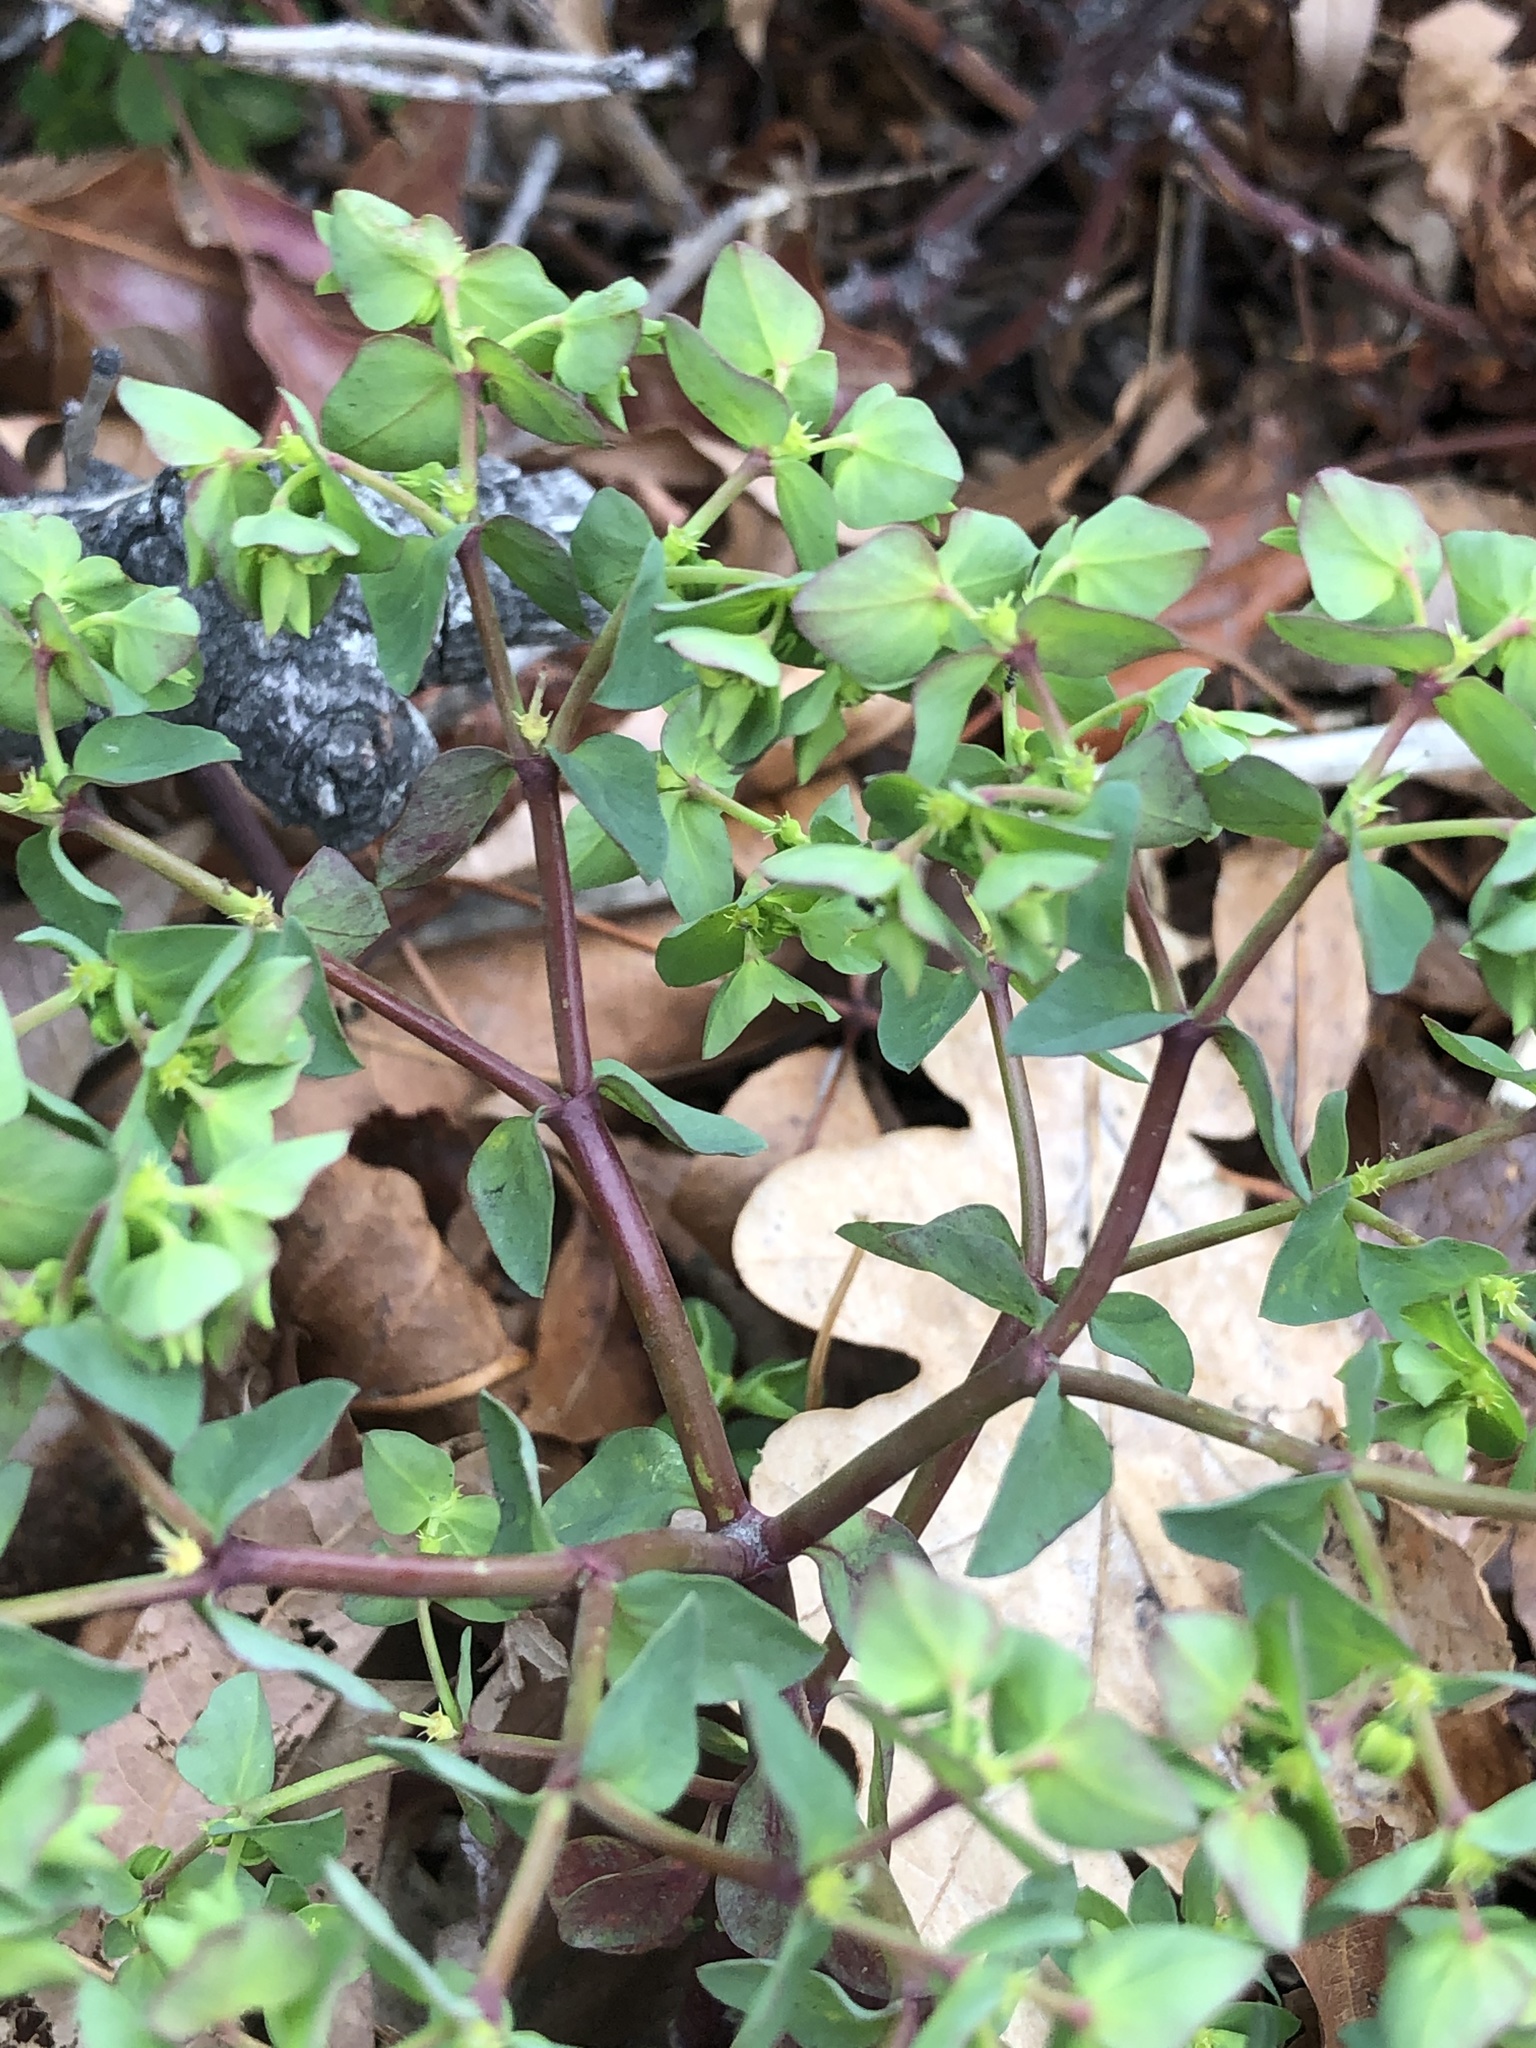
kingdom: Plantae
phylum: Tracheophyta
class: Magnoliopsida
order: Malpighiales
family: Euphorbiaceae
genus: Euphorbia
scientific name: Euphorbia peplus
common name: Petty spurge
